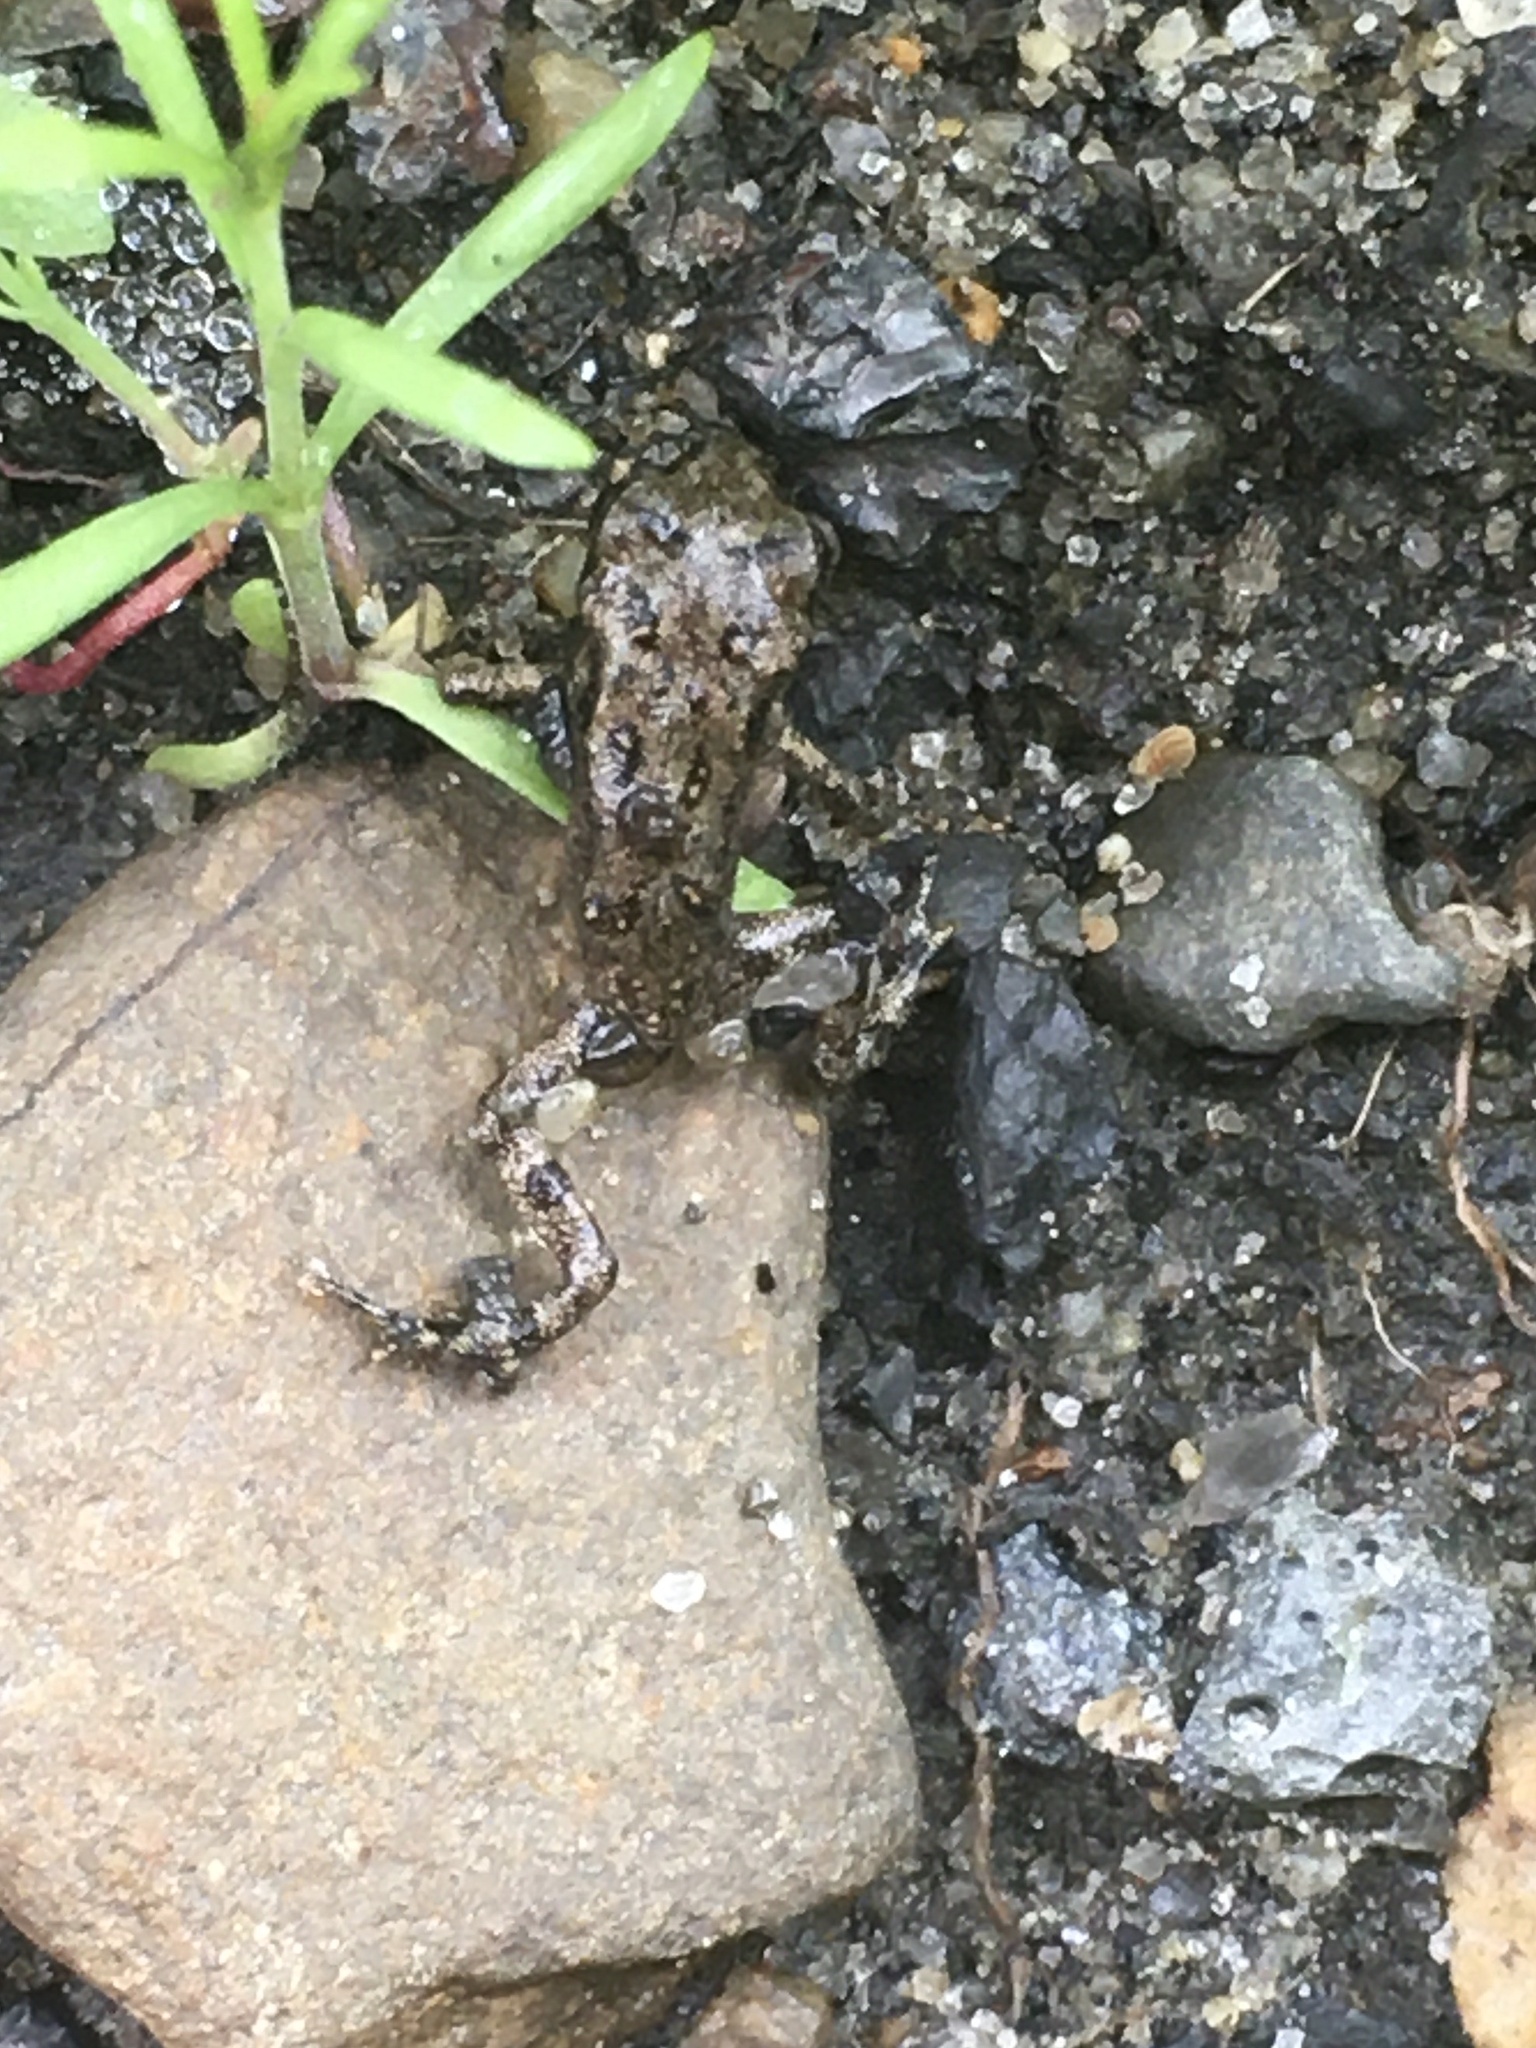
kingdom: Animalia
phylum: Chordata
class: Amphibia
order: Anura
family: Bufonidae
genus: Anaxyrus
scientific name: Anaxyrus americanus
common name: American toad
